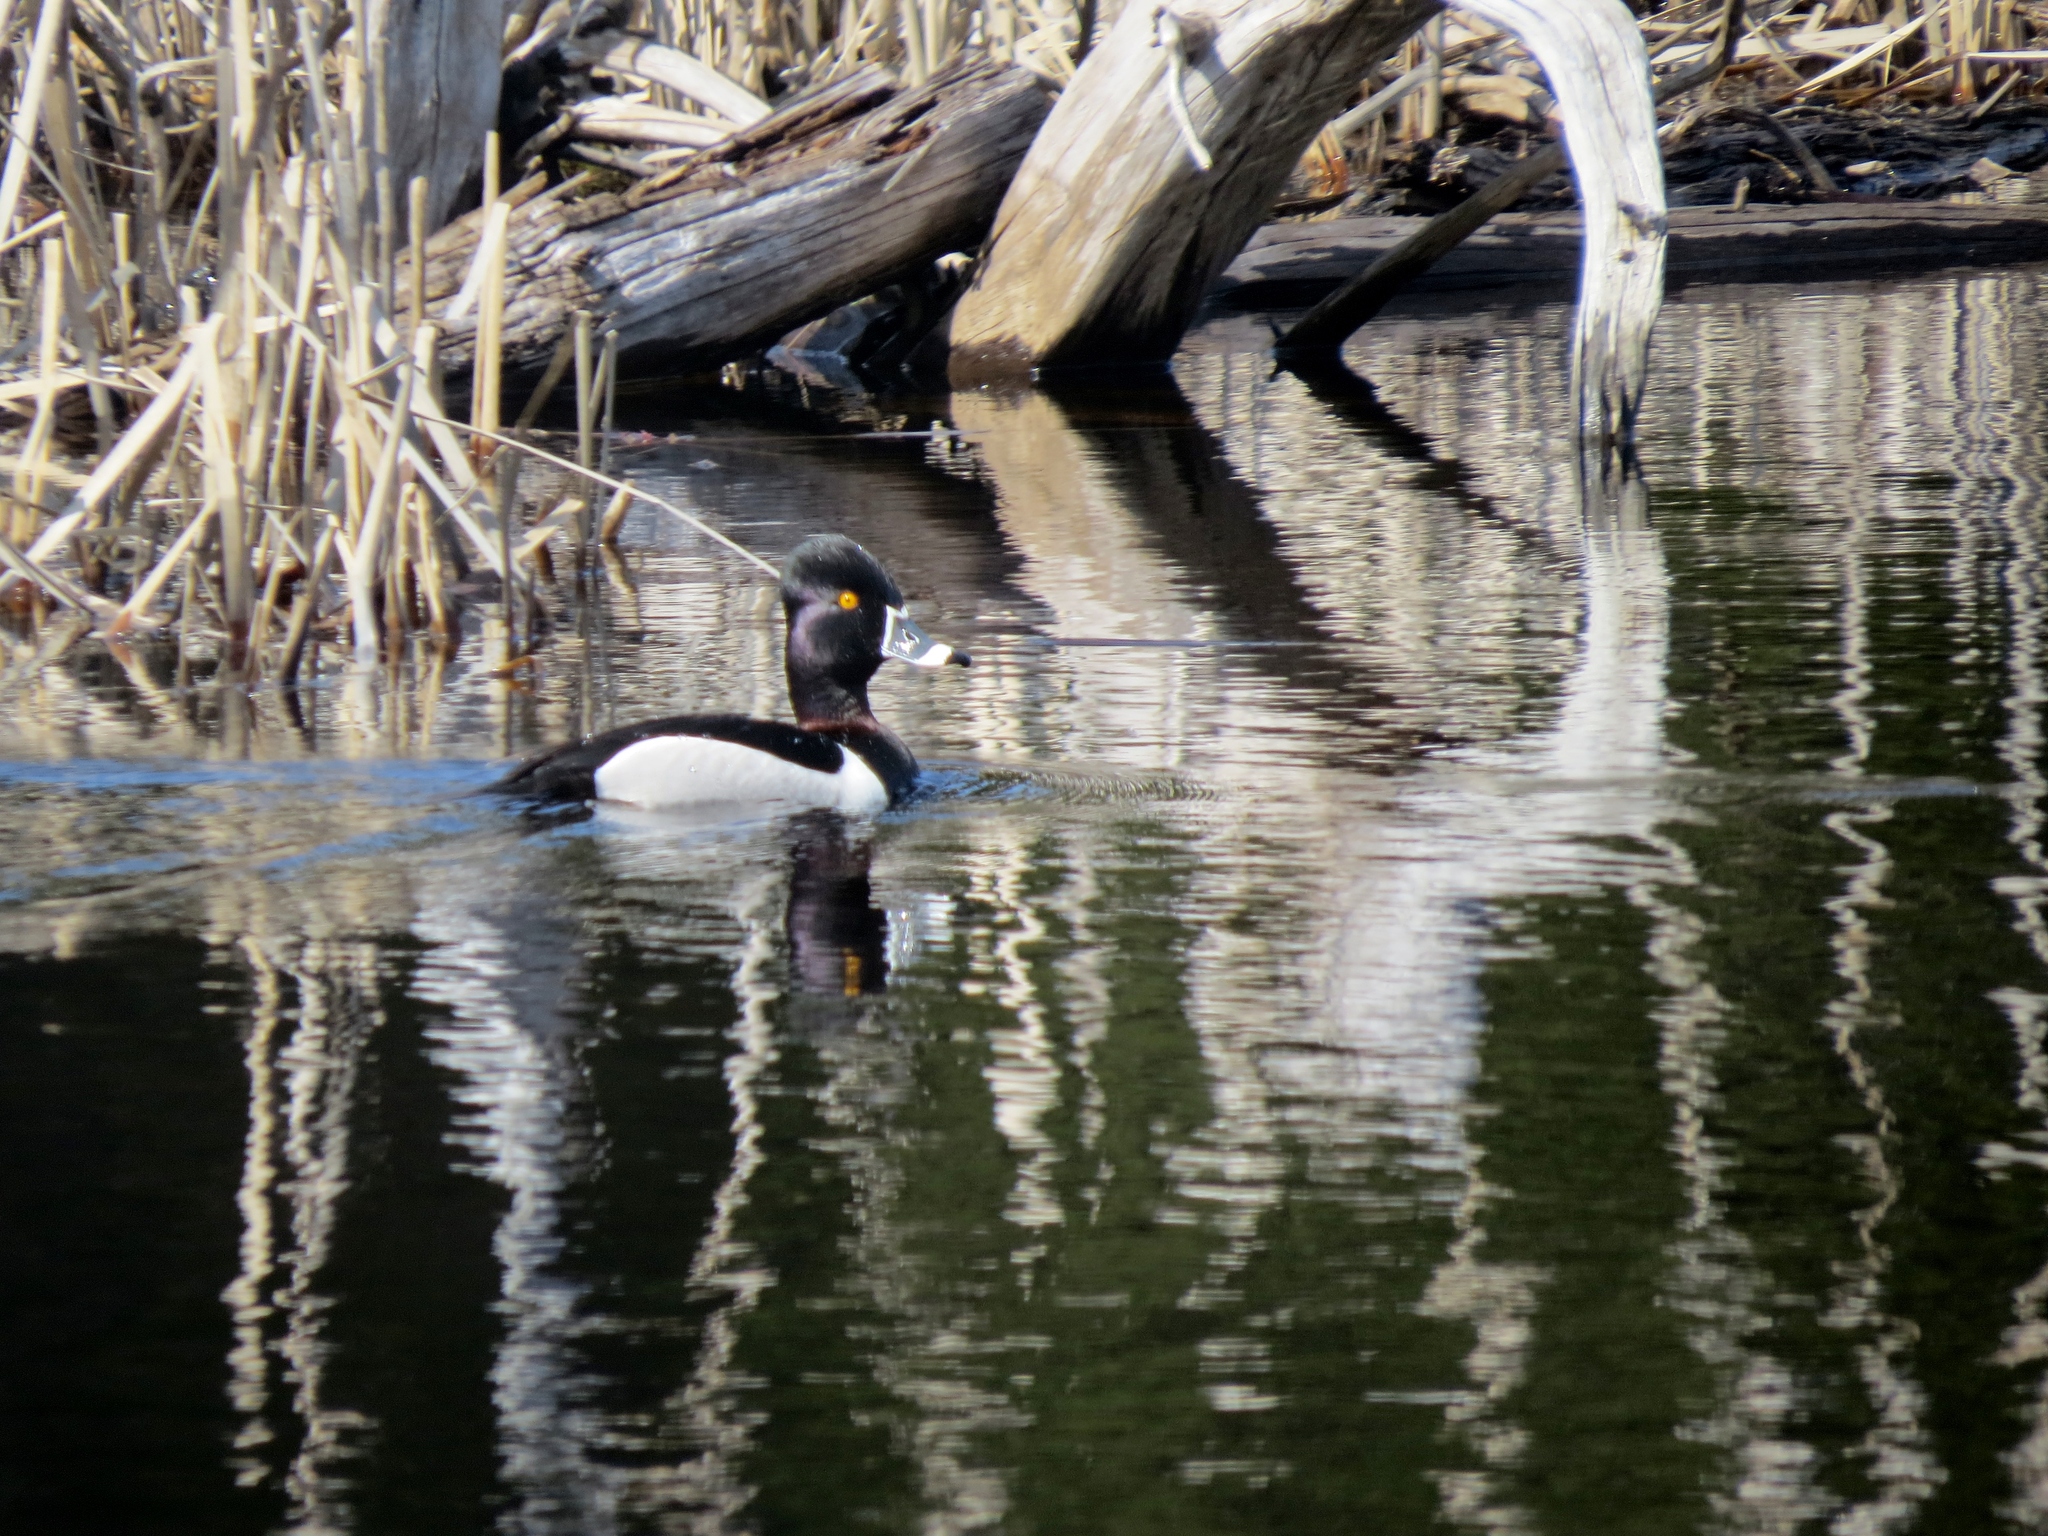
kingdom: Animalia
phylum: Chordata
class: Aves
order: Anseriformes
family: Anatidae
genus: Aythya
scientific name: Aythya collaris
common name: Ring-necked duck
